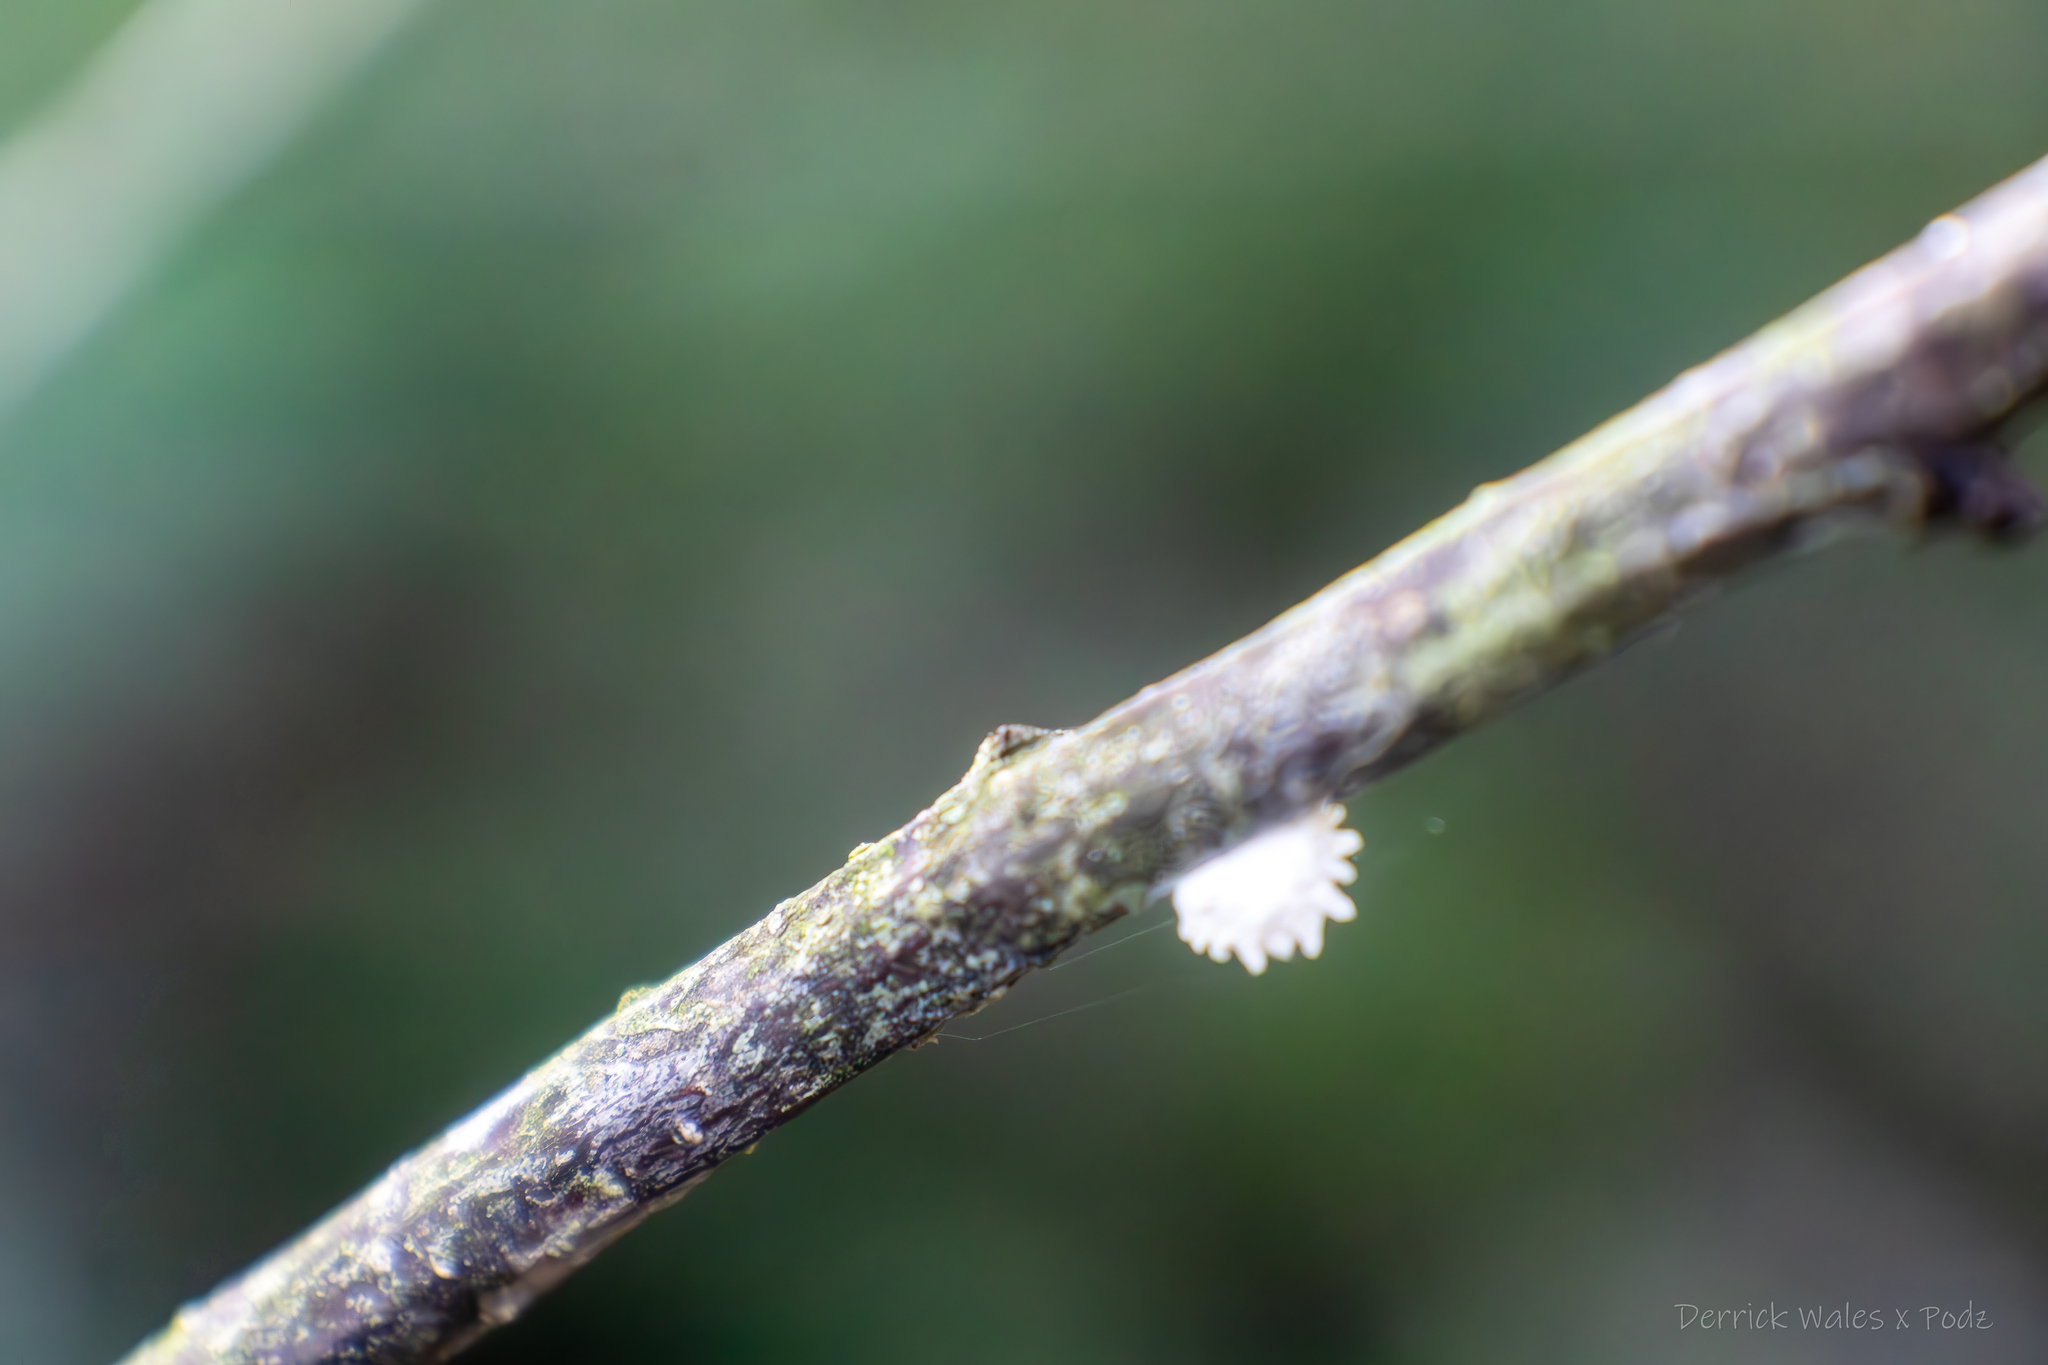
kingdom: Animalia
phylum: Arthropoda
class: Insecta
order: Lepidoptera
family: Epipyropidae
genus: Fulgoraecia
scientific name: Fulgoraecia exigua
